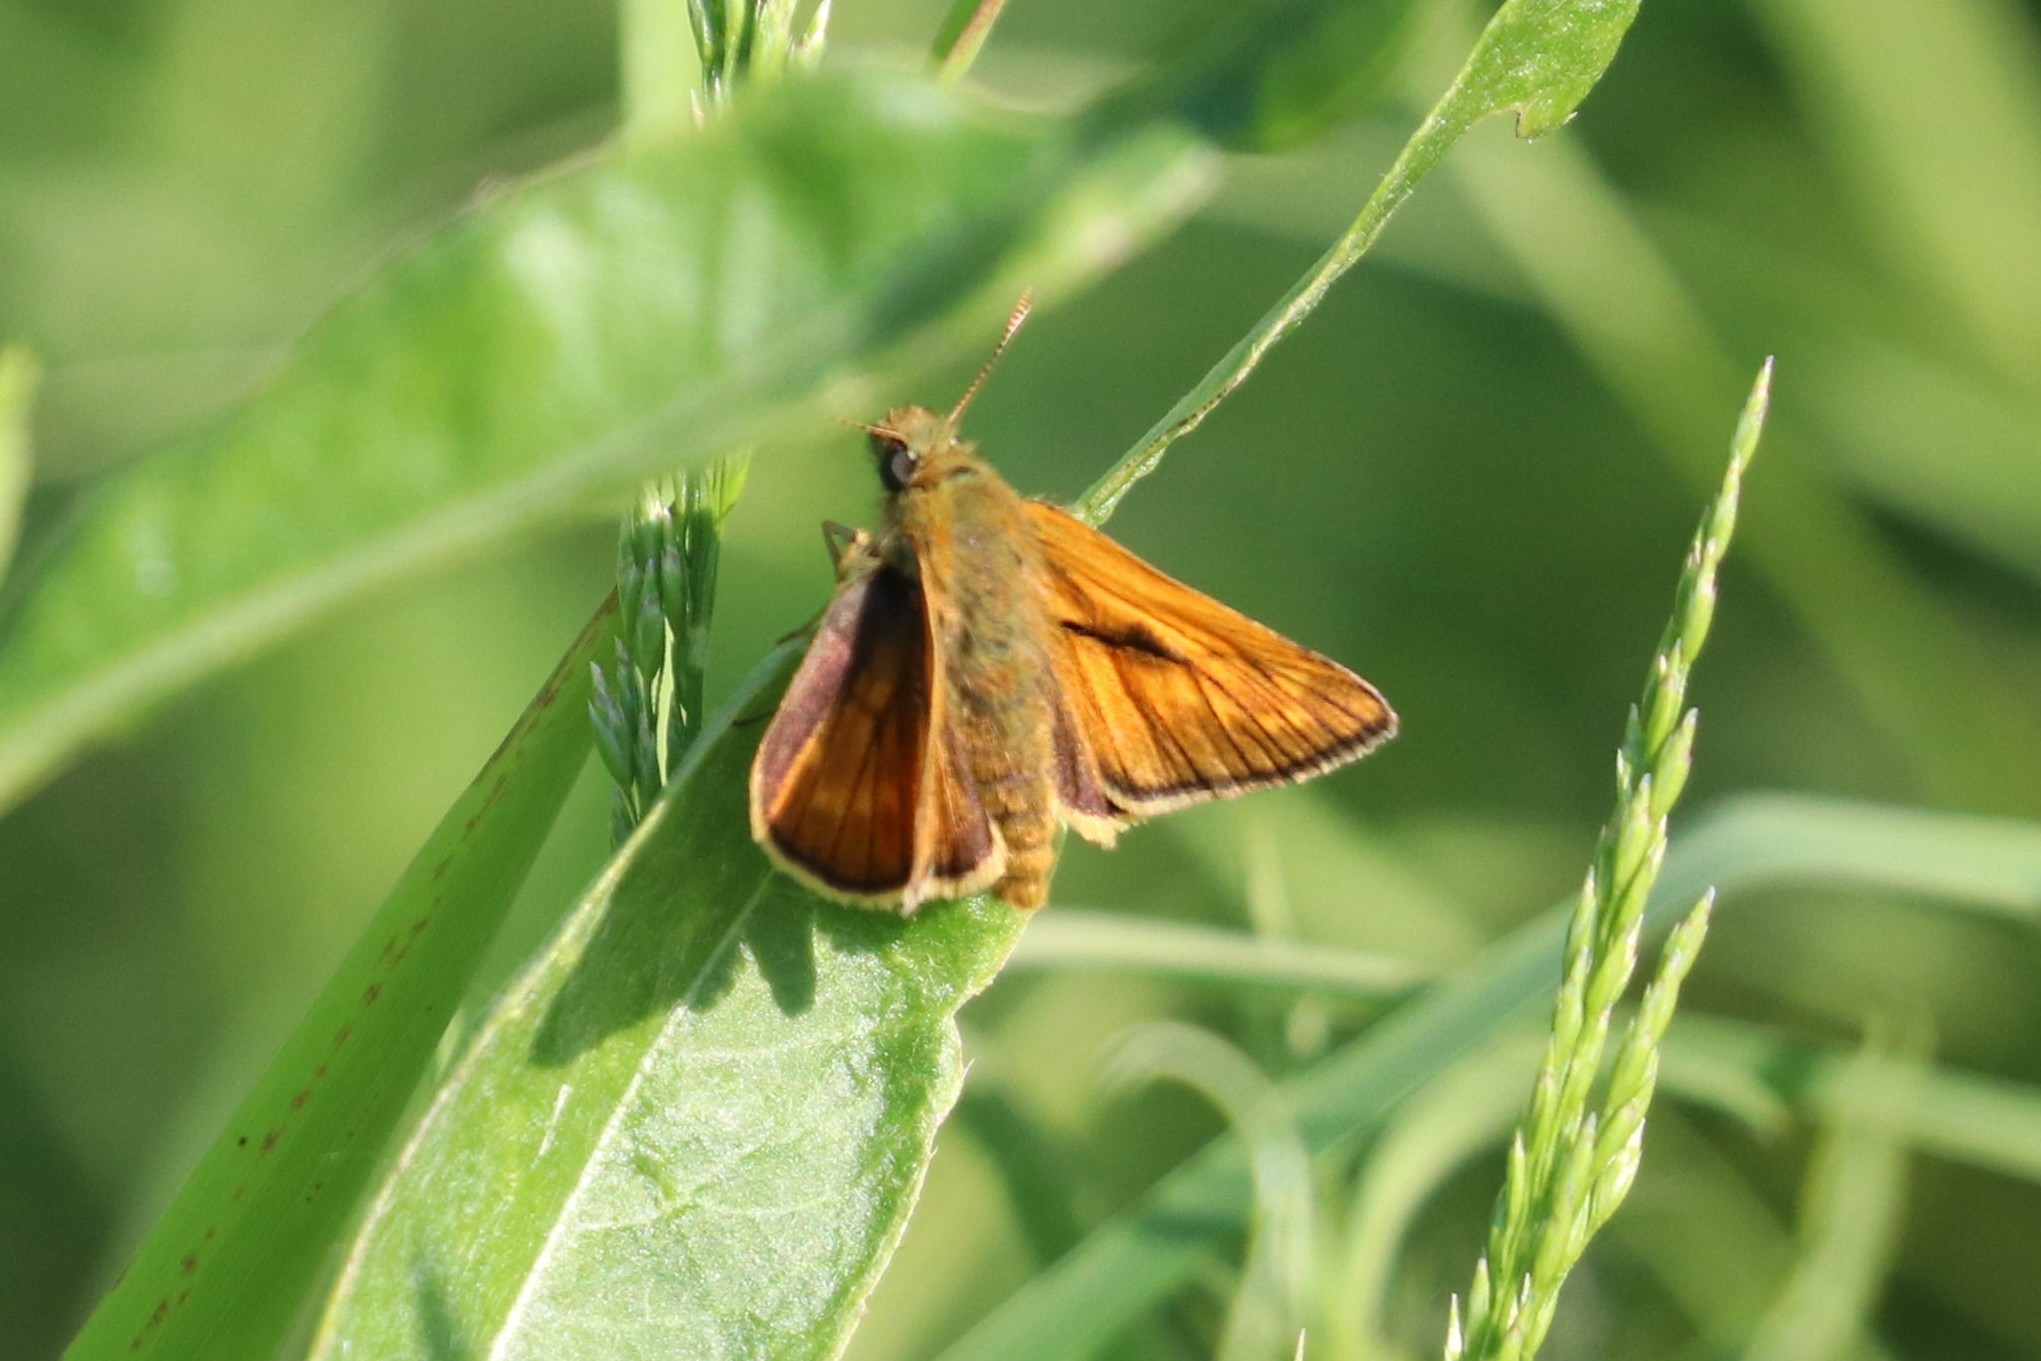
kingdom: Animalia
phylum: Arthropoda
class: Insecta
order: Lepidoptera
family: Hesperiidae
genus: Ochlodes
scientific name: Ochlodes venata
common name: Large skipper
